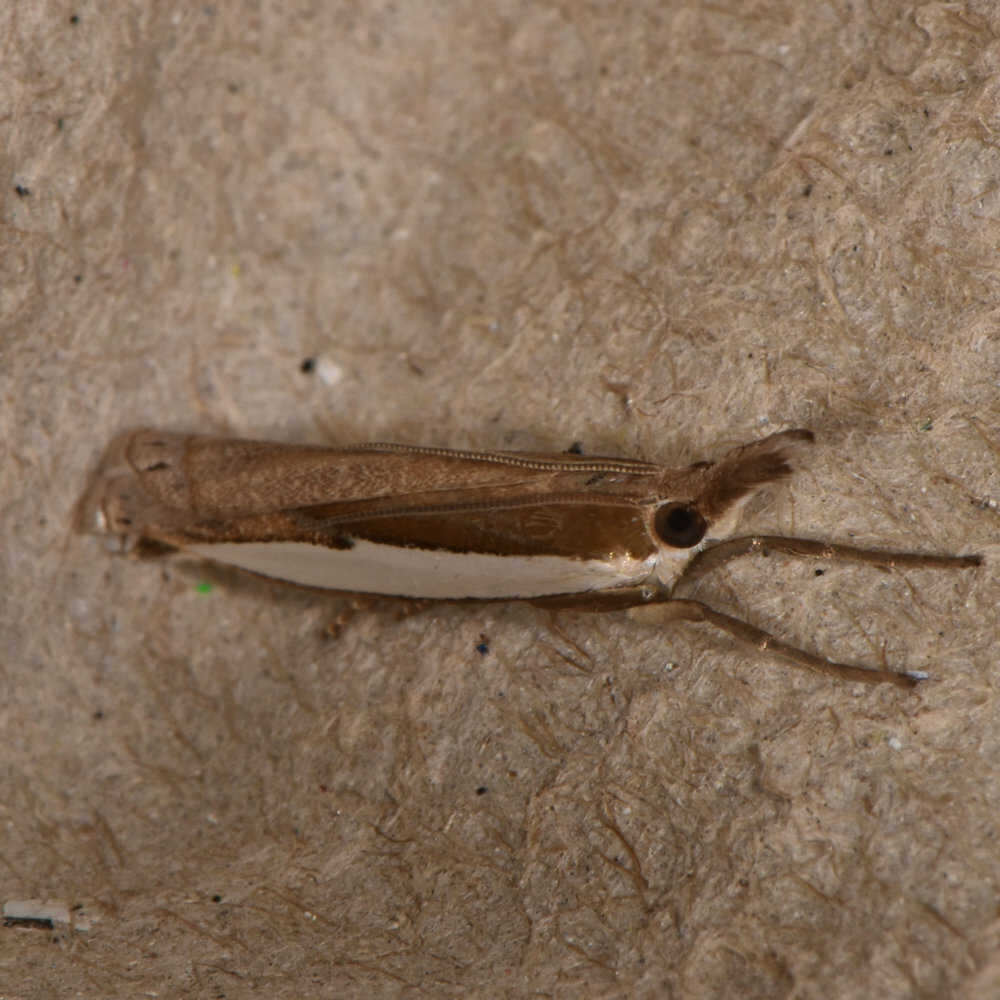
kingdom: Animalia
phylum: Arthropoda
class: Insecta
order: Lepidoptera
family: Crambidae
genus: Crambus
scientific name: Crambus leachellus
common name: Leach's grass-veneer
